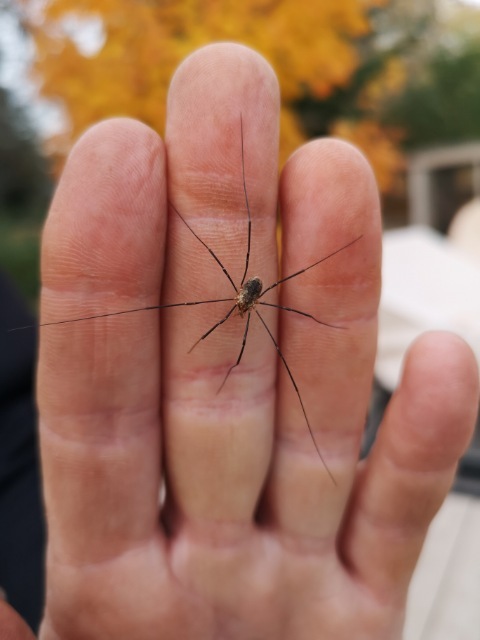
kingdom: Animalia
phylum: Arthropoda
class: Arachnida
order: Opiliones
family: Phalangiidae
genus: Phalangium
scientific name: Phalangium opilio
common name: Daddy longleg
